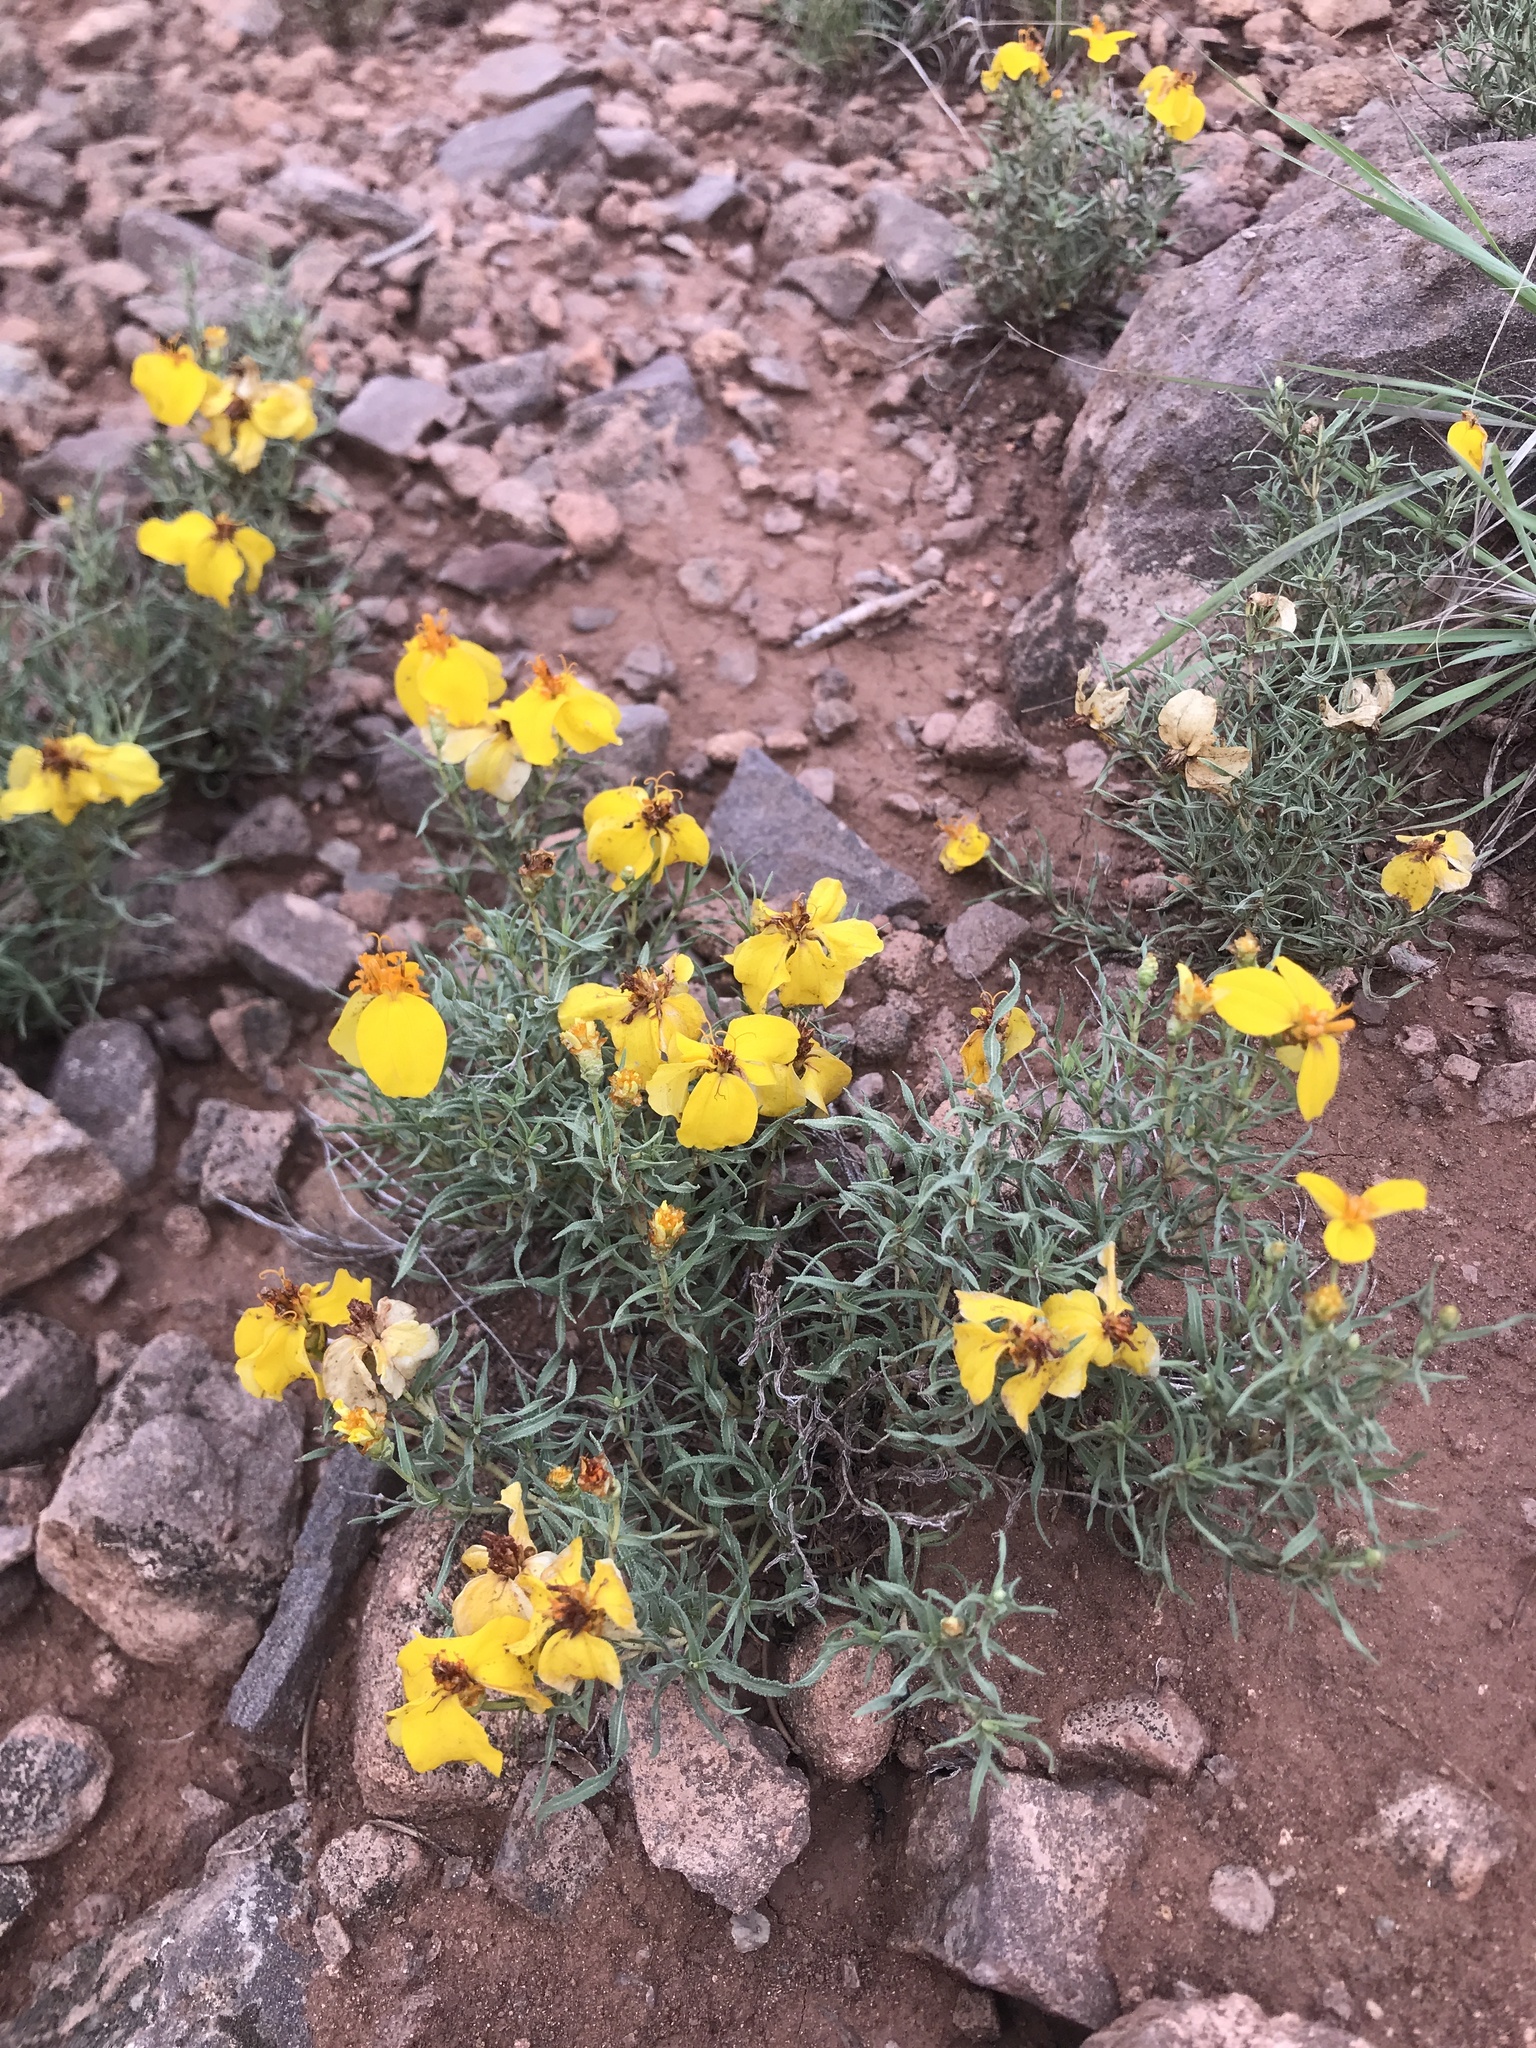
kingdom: Plantae
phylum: Tracheophyta
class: Magnoliopsida
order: Asterales
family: Asteraceae
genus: Zinnia
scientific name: Zinnia grandiflora
